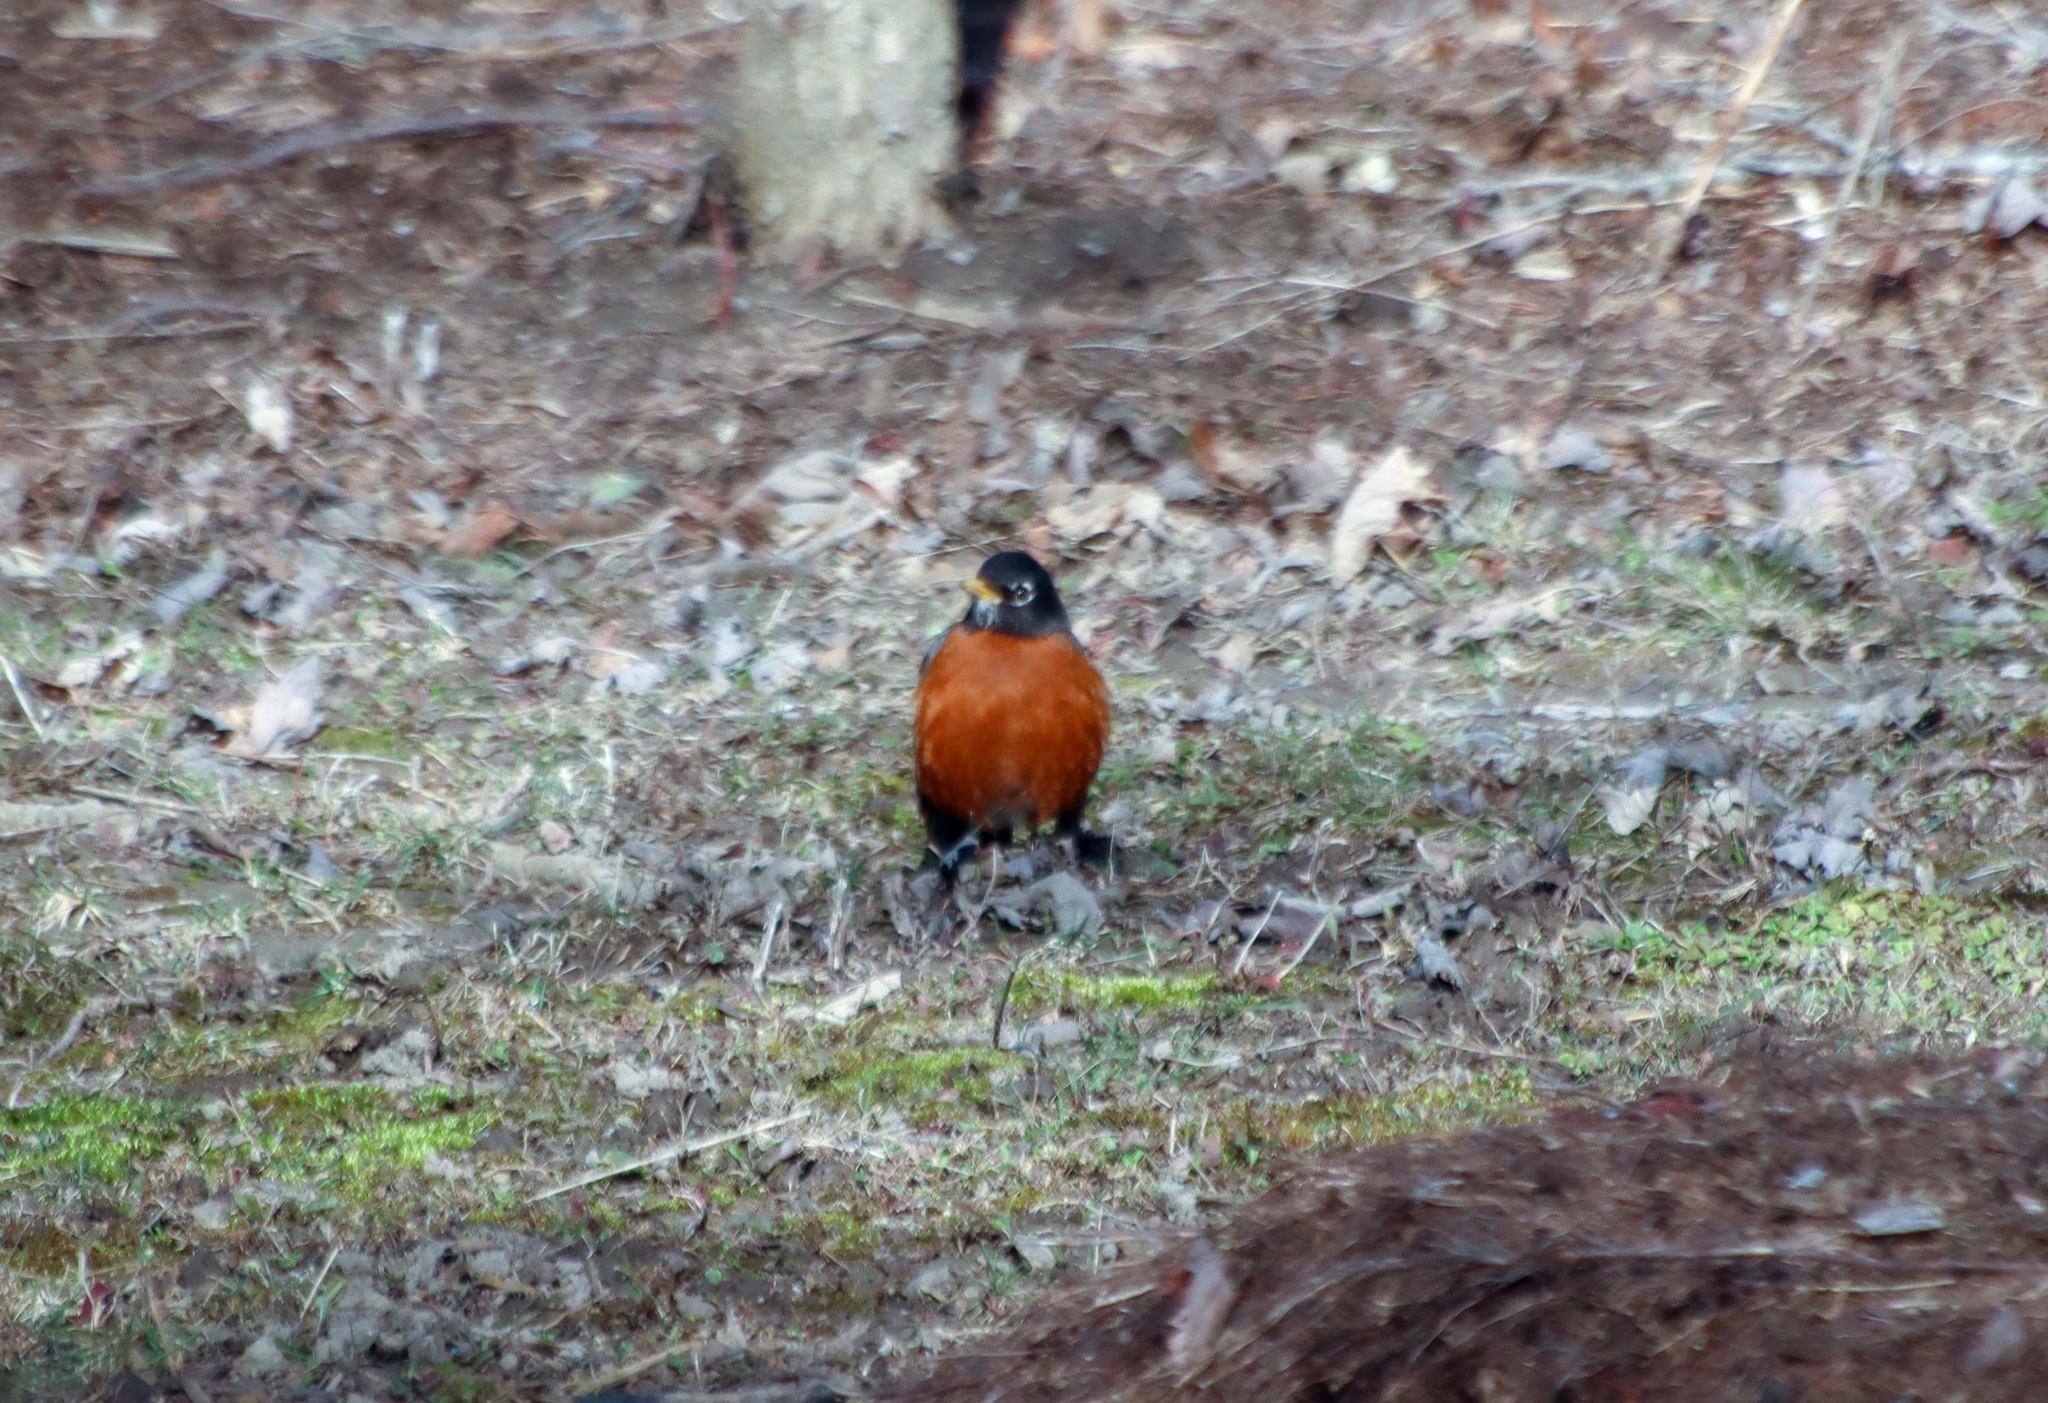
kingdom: Animalia
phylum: Chordata
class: Aves
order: Passeriformes
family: Turdidae
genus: Turdus
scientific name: Turdus migratorius
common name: American robin
